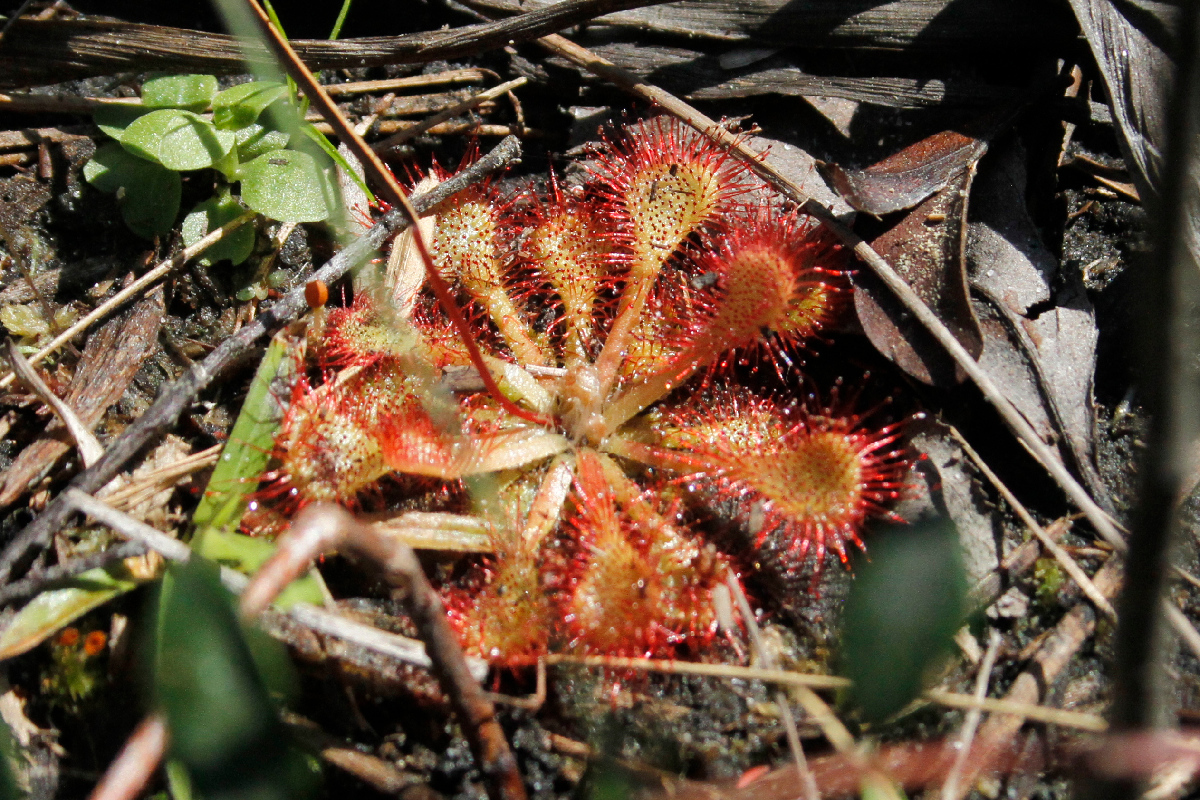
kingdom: Plantae
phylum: Tracheophyta
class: Magnoliopsida
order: Caryophyllales
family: Droseraceae
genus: Drosera
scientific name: Drosera brevifolia
